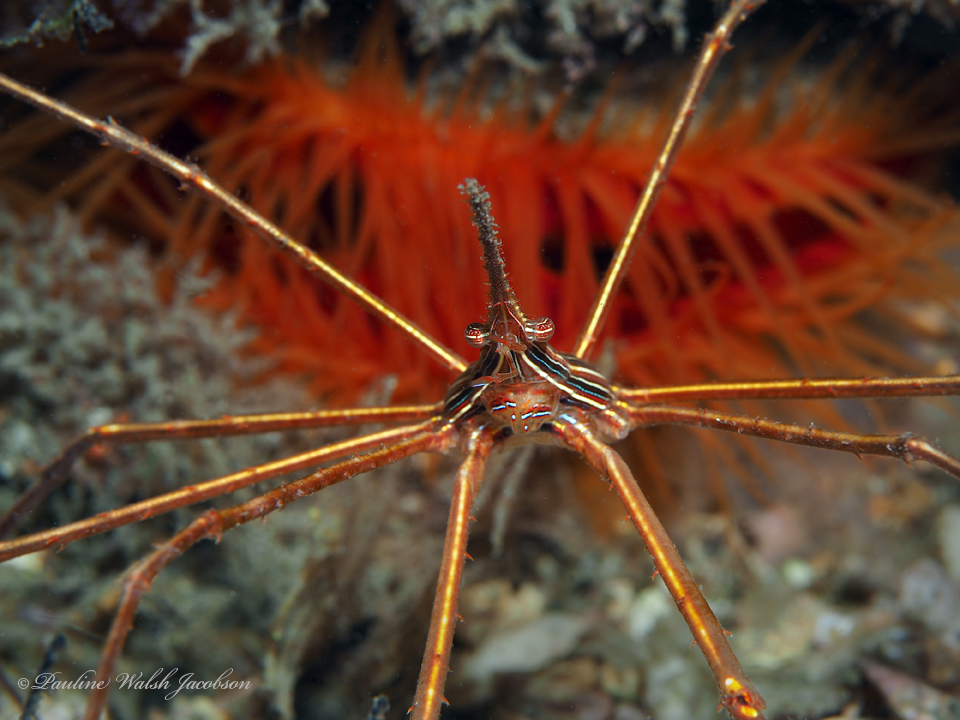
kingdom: Animalia
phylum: Arthropoda
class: Malacostraca
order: Decapoda
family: Inachoididae
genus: Stenorhynchus
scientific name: Stenorhynchus seticornis
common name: Arrow crab
